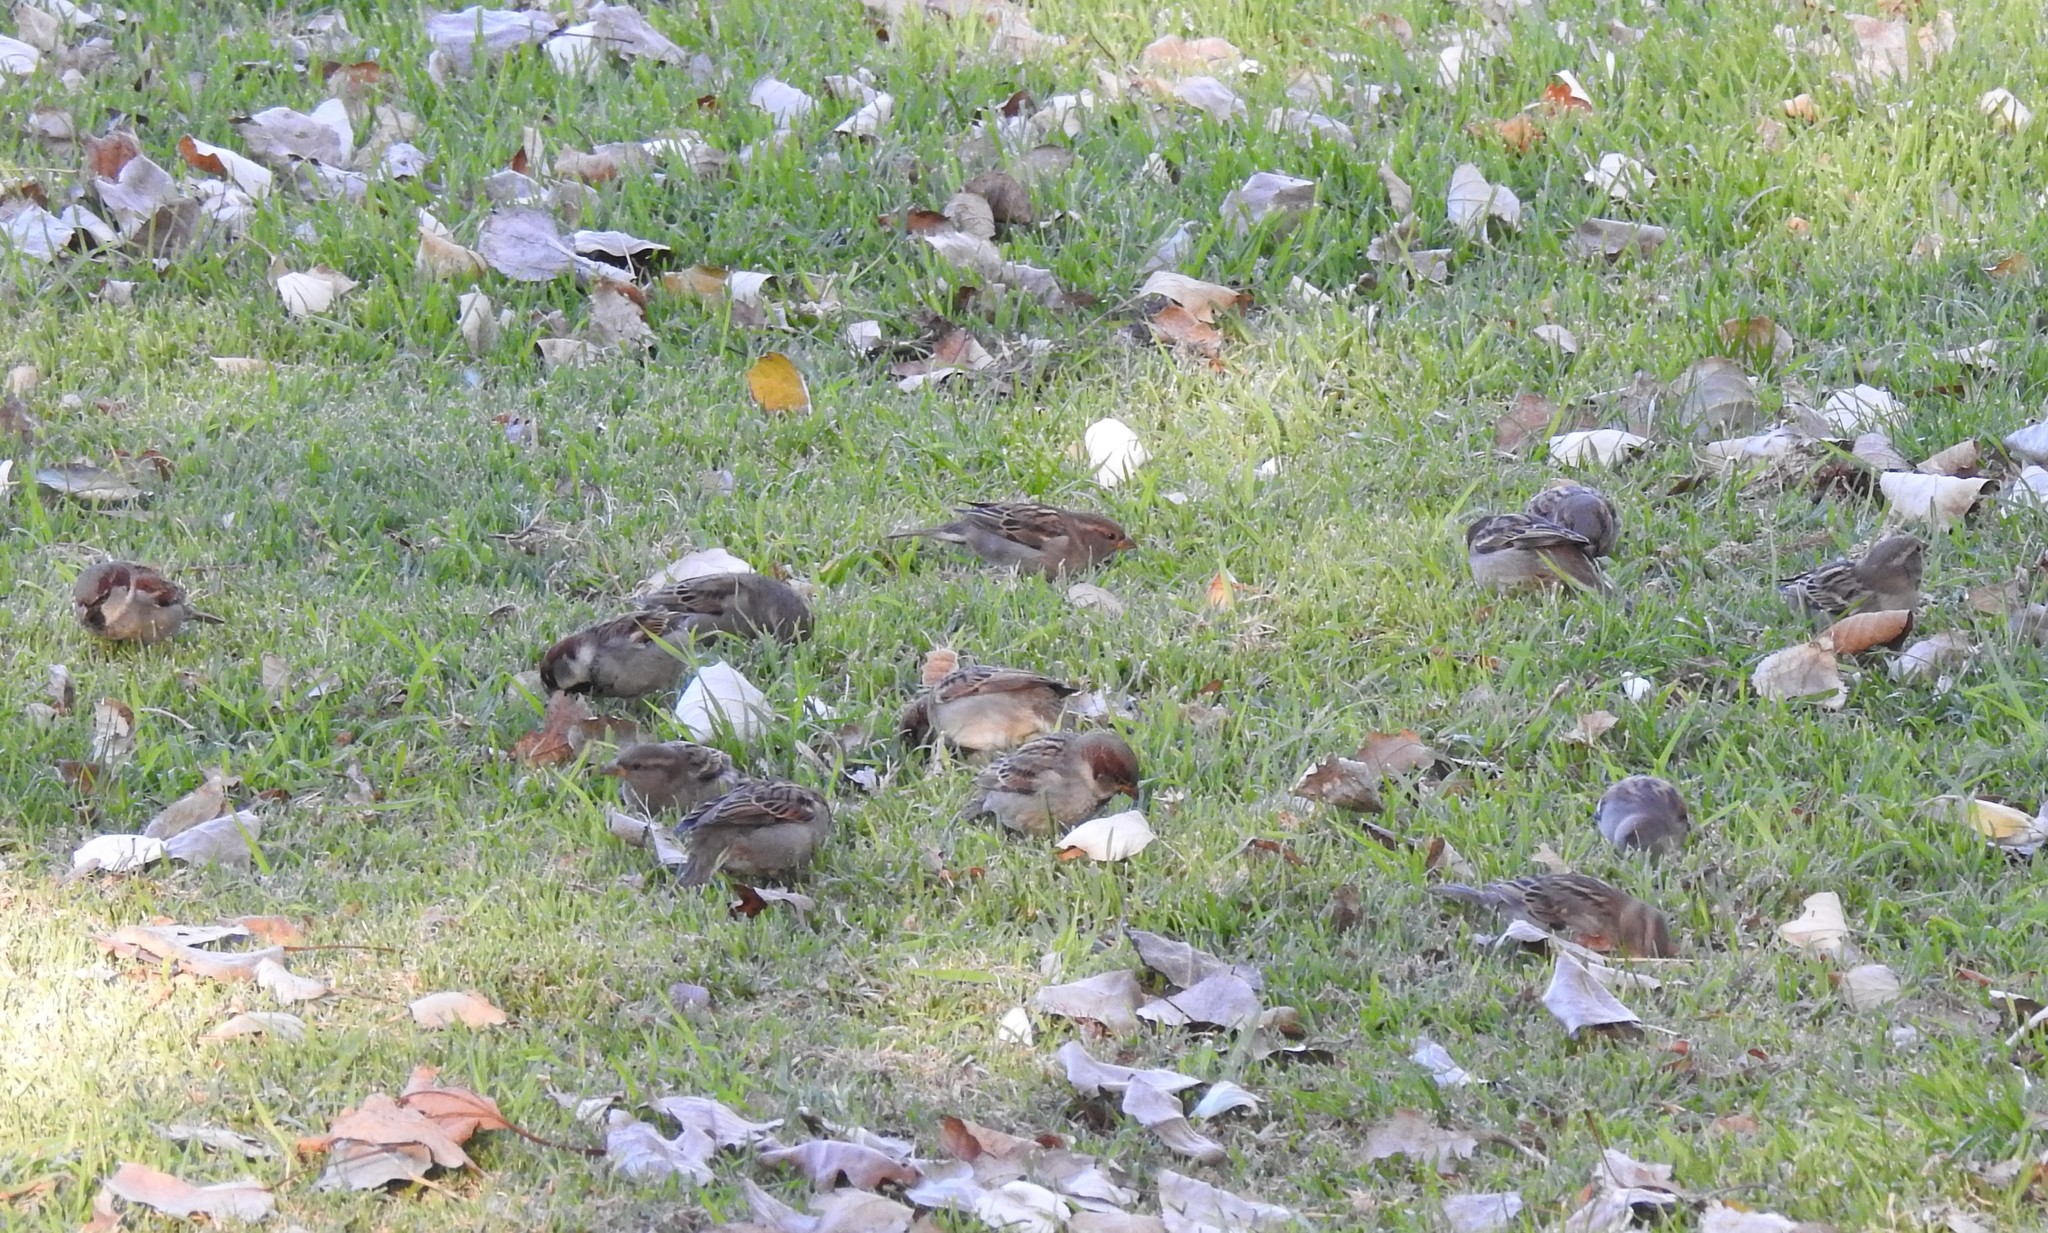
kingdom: Animalia
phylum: Chordata
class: Aves
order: Passeriformes
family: Passeridae
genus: Passer
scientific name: Passer domesticus
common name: House sparrow
